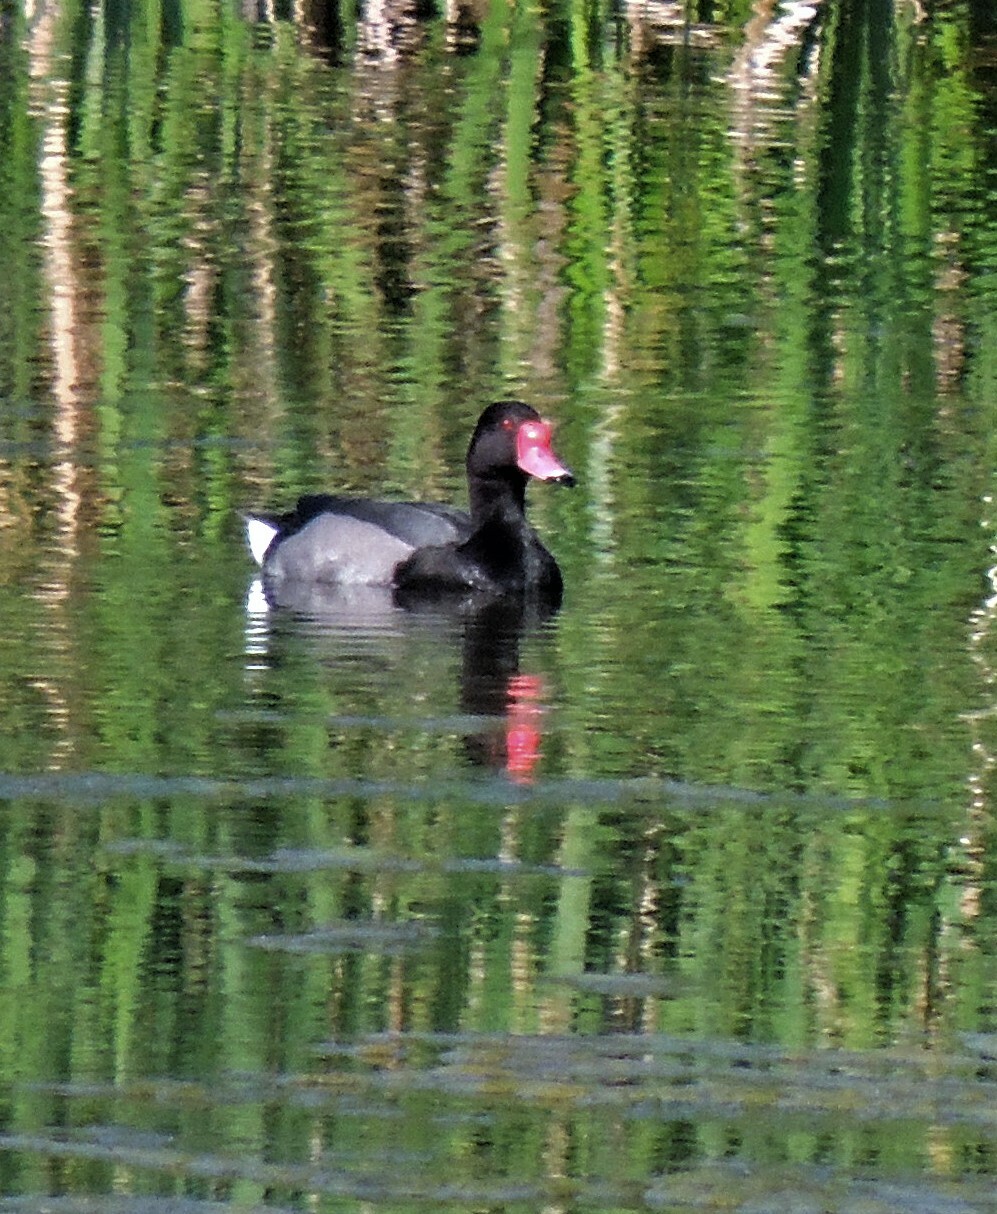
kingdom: Animalia
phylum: Chordata
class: Aves
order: Anseriformes
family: Anatidae
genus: Netta
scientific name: Netta peposaca
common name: Rosy-billed pochard
